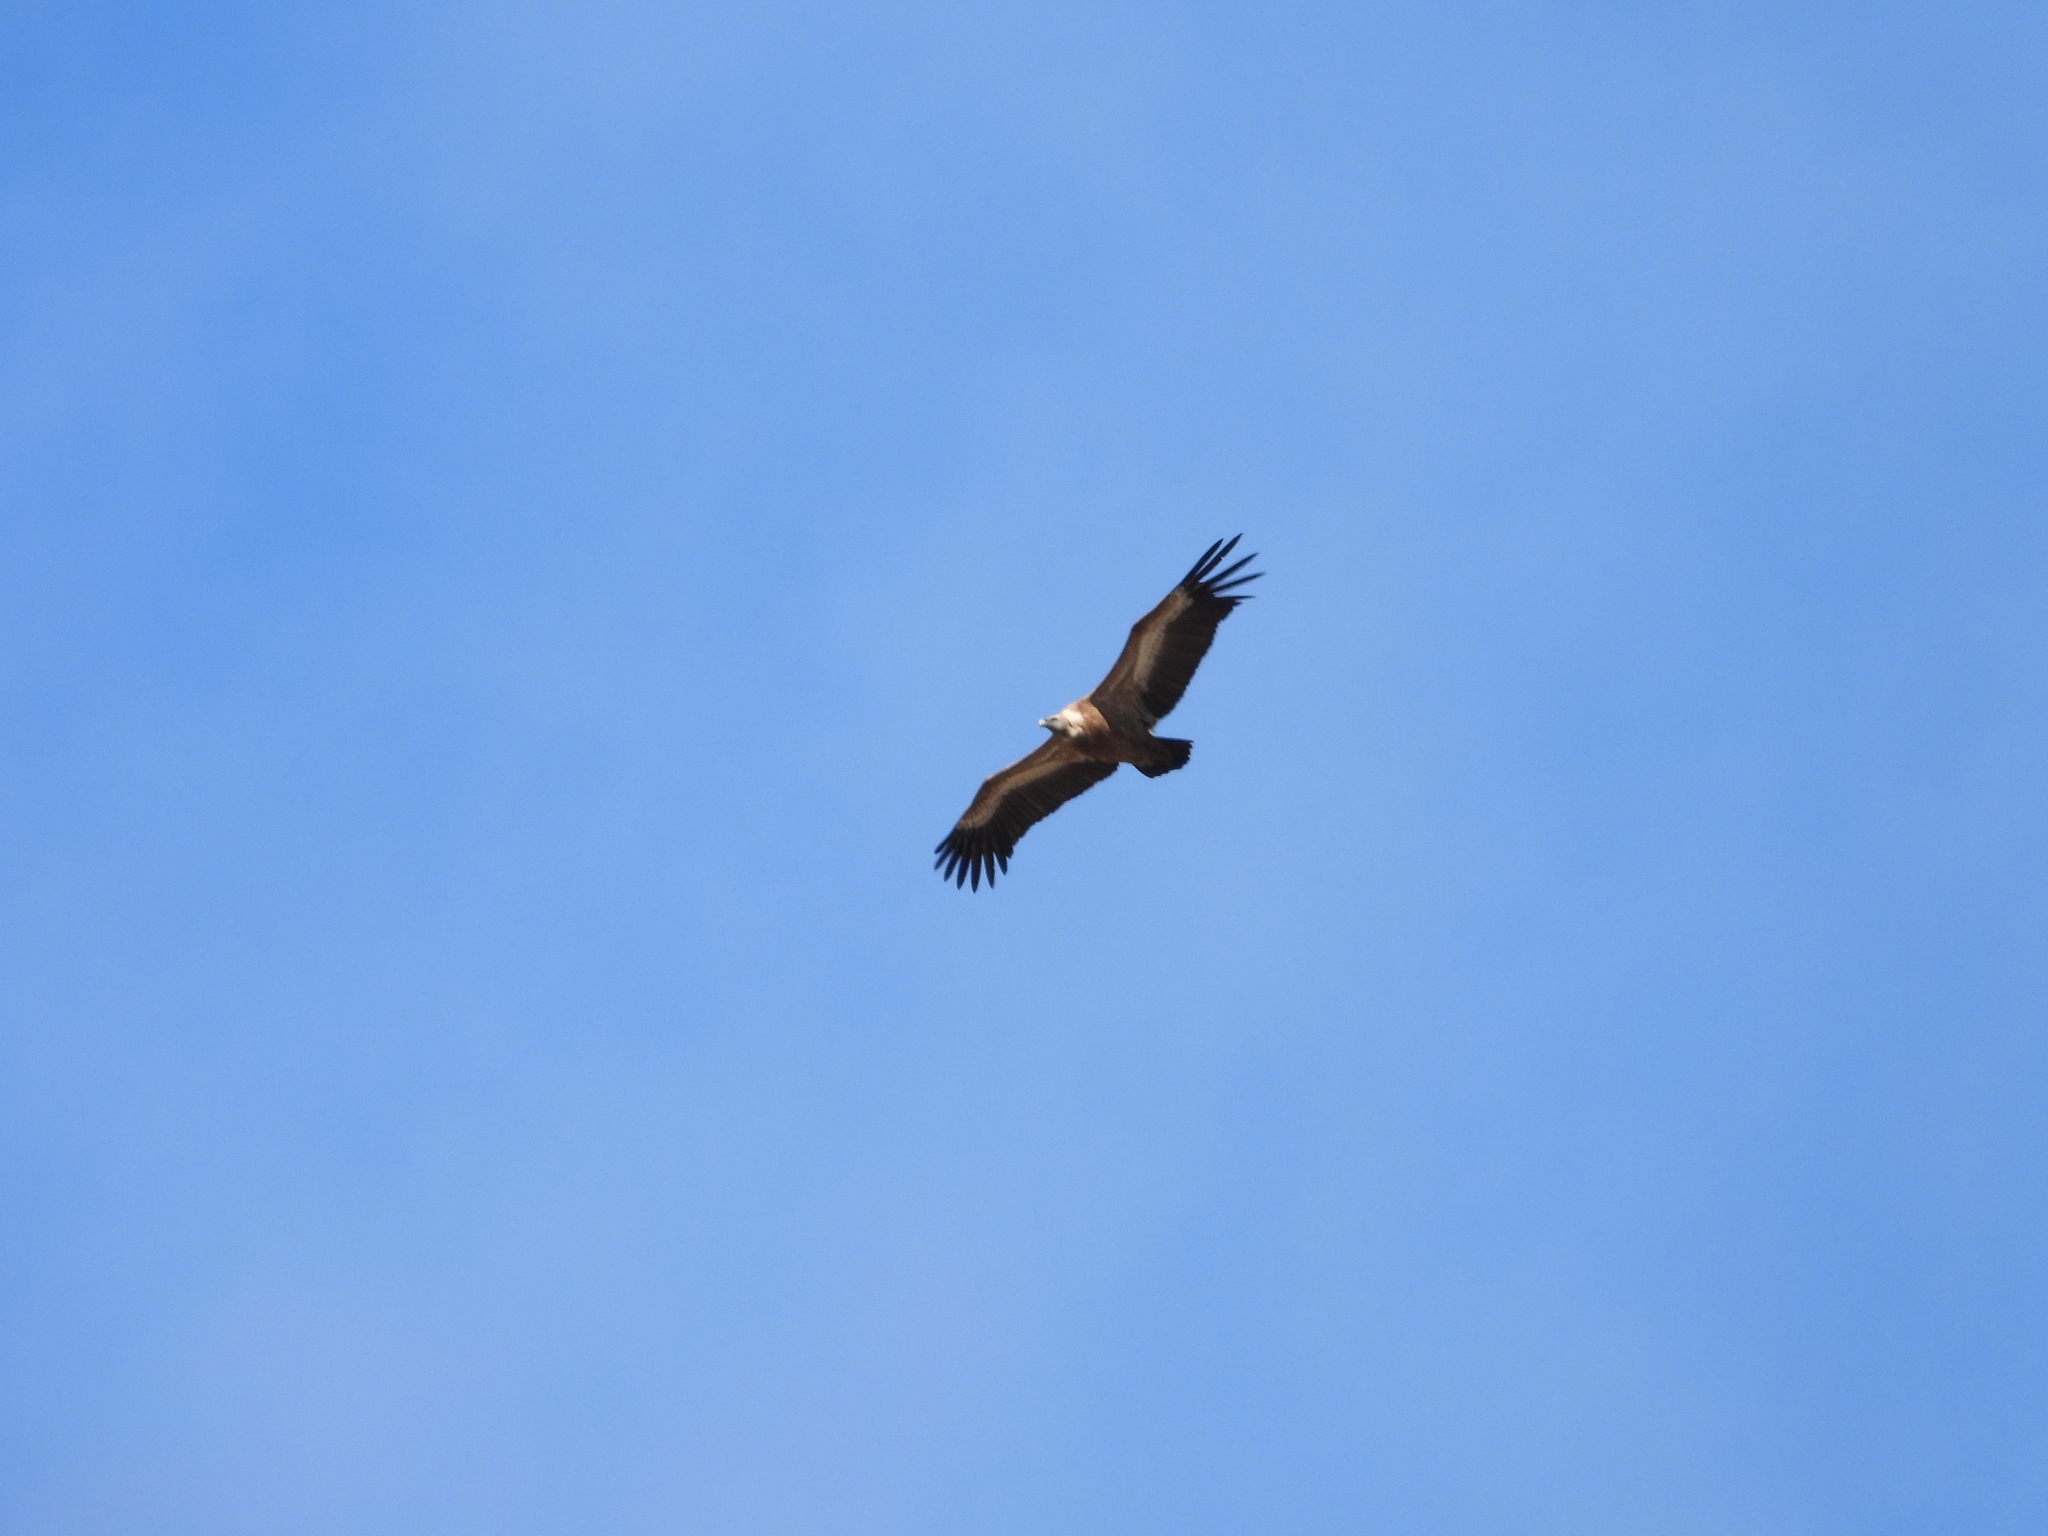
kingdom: Animalia
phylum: Chordata
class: Aves
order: Accipitriformes
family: Accipitridae
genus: Gyps
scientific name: Gyps fulvus
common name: Griffon vulture
